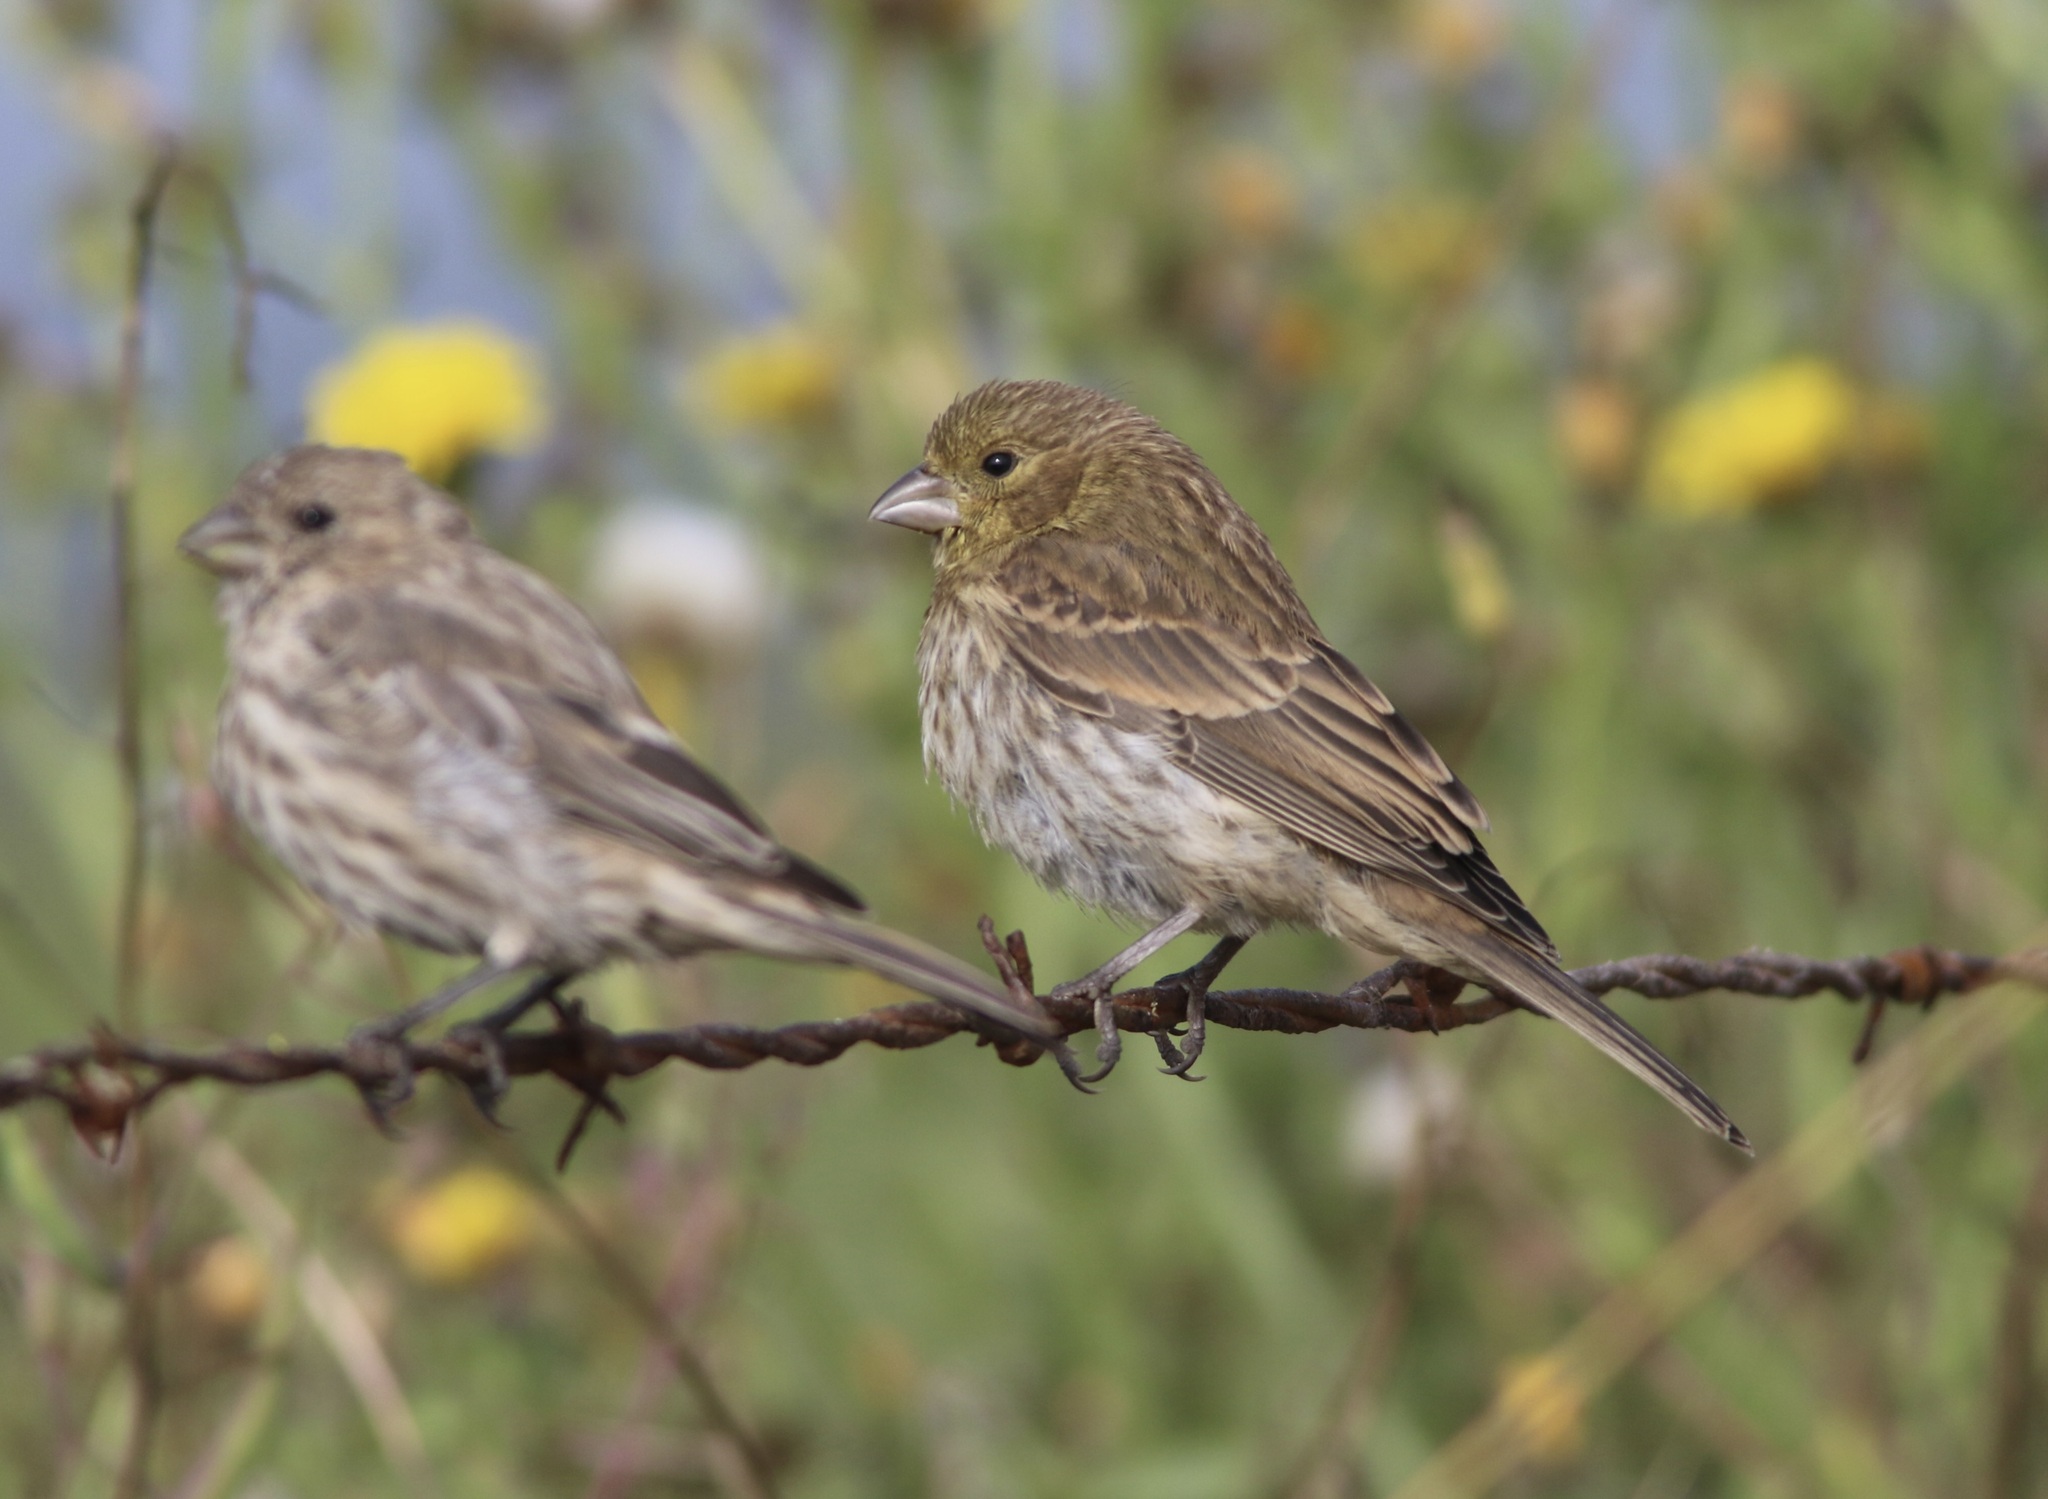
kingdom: Animalia
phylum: Chordata
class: Aves
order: Passeriformes
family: Fringillidae
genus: Haemorhous
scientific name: Haemorhous mexicanus
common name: House finch
